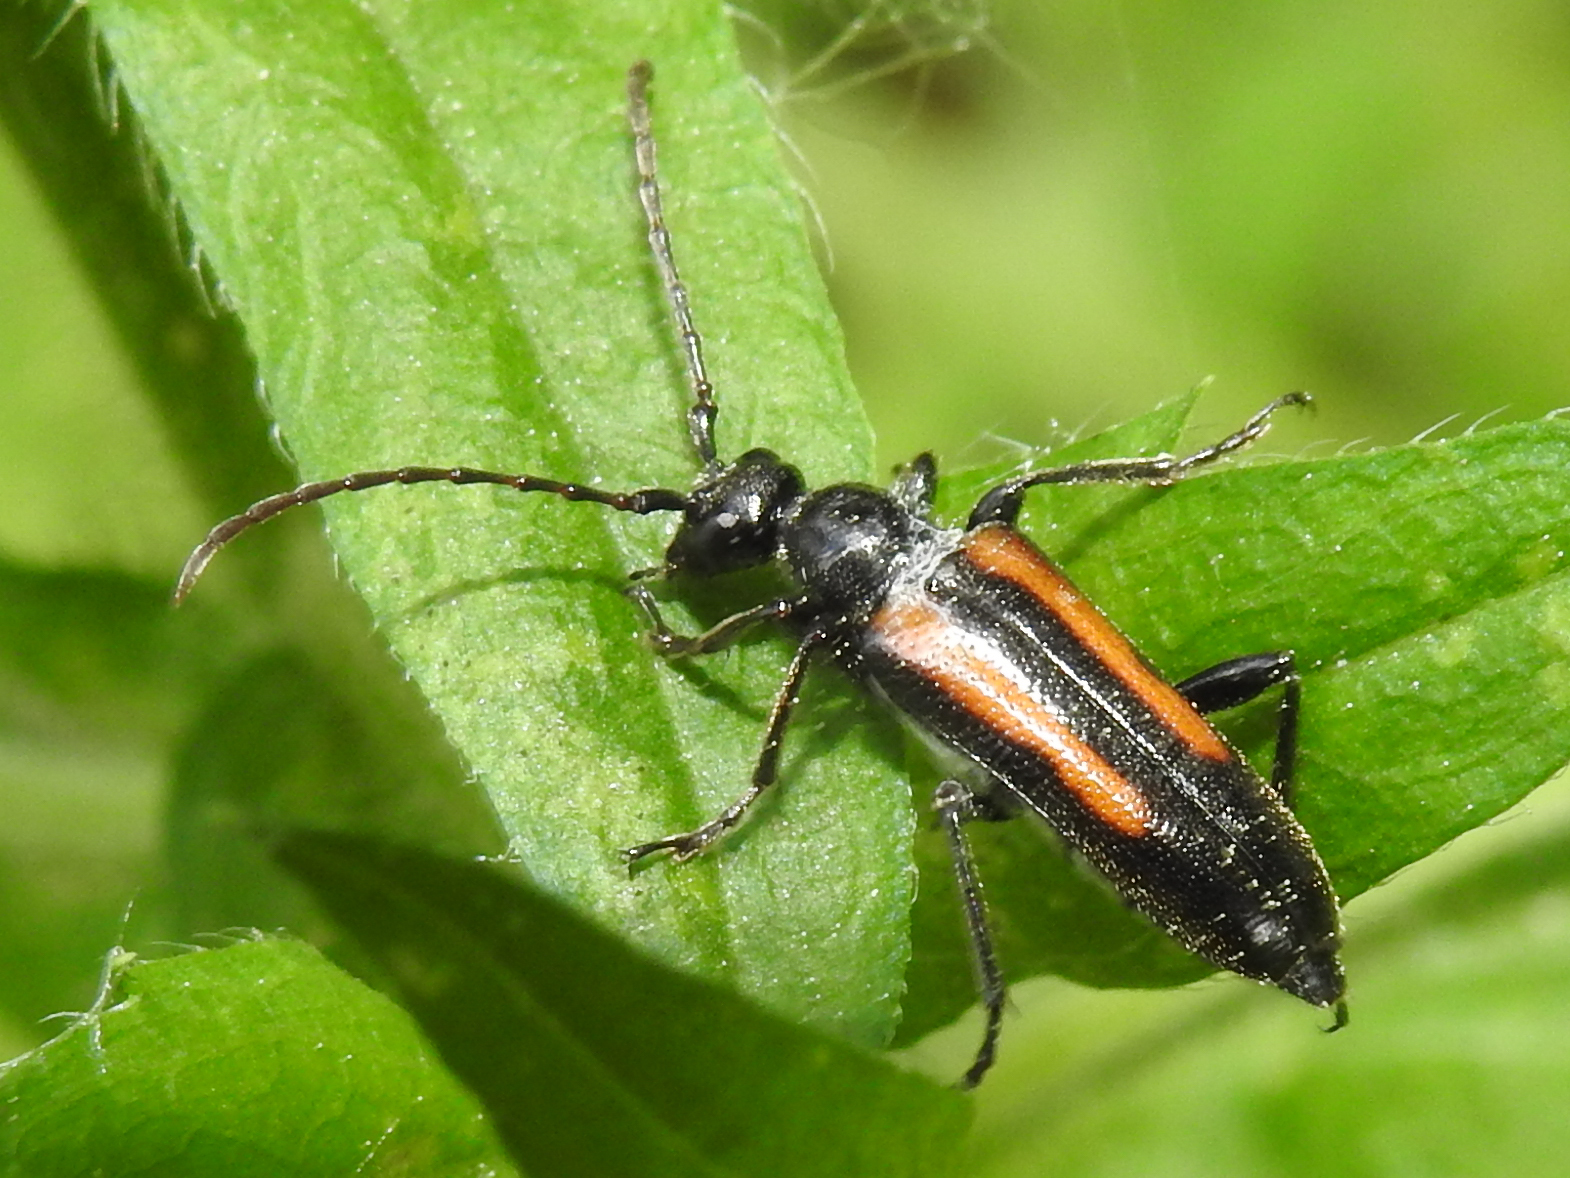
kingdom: Animalia
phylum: Arthropoda
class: Insecta
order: Coleoptera
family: Cerambycidae
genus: Strangalepta
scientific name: Strangalepta abbreviata
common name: Strangalepta flower longhorn beetle
